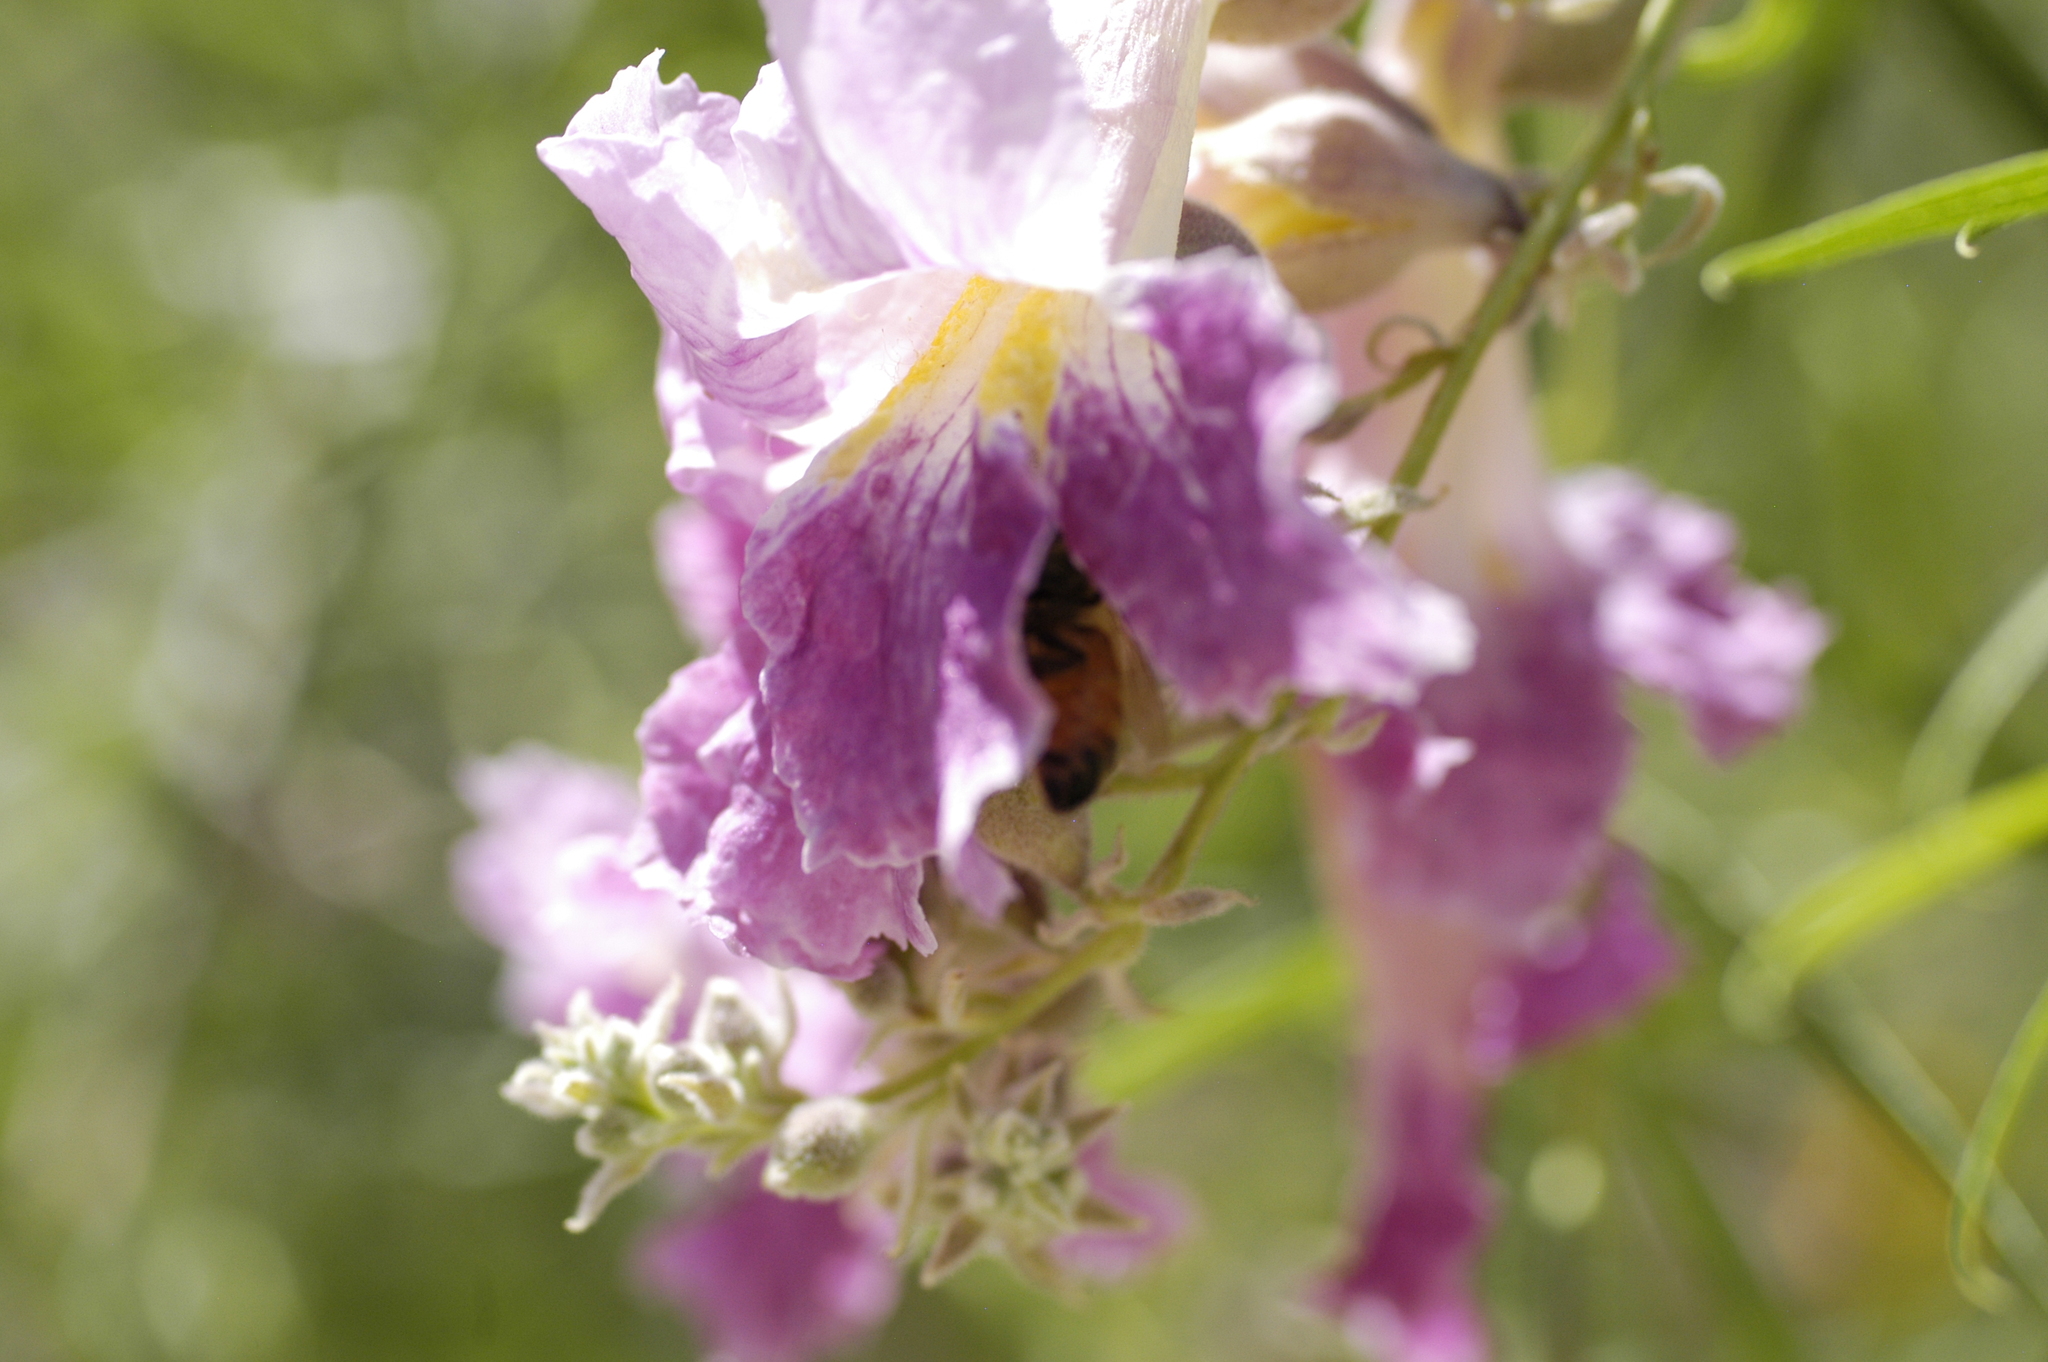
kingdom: Animalia
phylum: Arthropoda
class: Insecta
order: Hymenoptera
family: Apidae
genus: Apis
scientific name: Apis mellifera
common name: Honey bee
